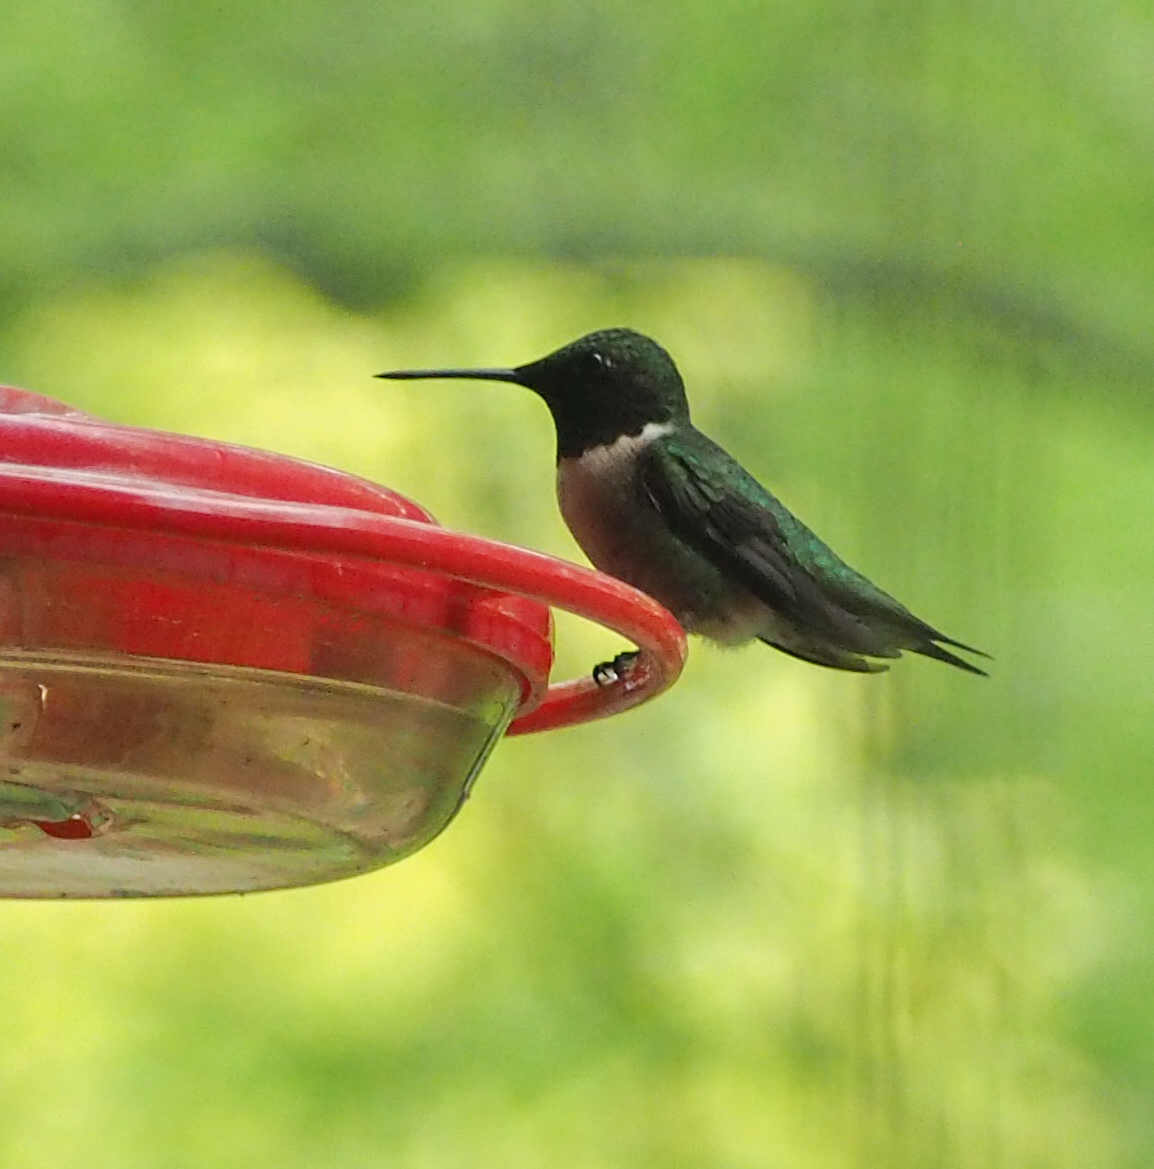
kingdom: Animalia
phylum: Chordata
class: Aves
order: Apodiformes
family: Trochilidae
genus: Archilochus
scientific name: Archilochus colubris
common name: Ruby-throated hummingbird
